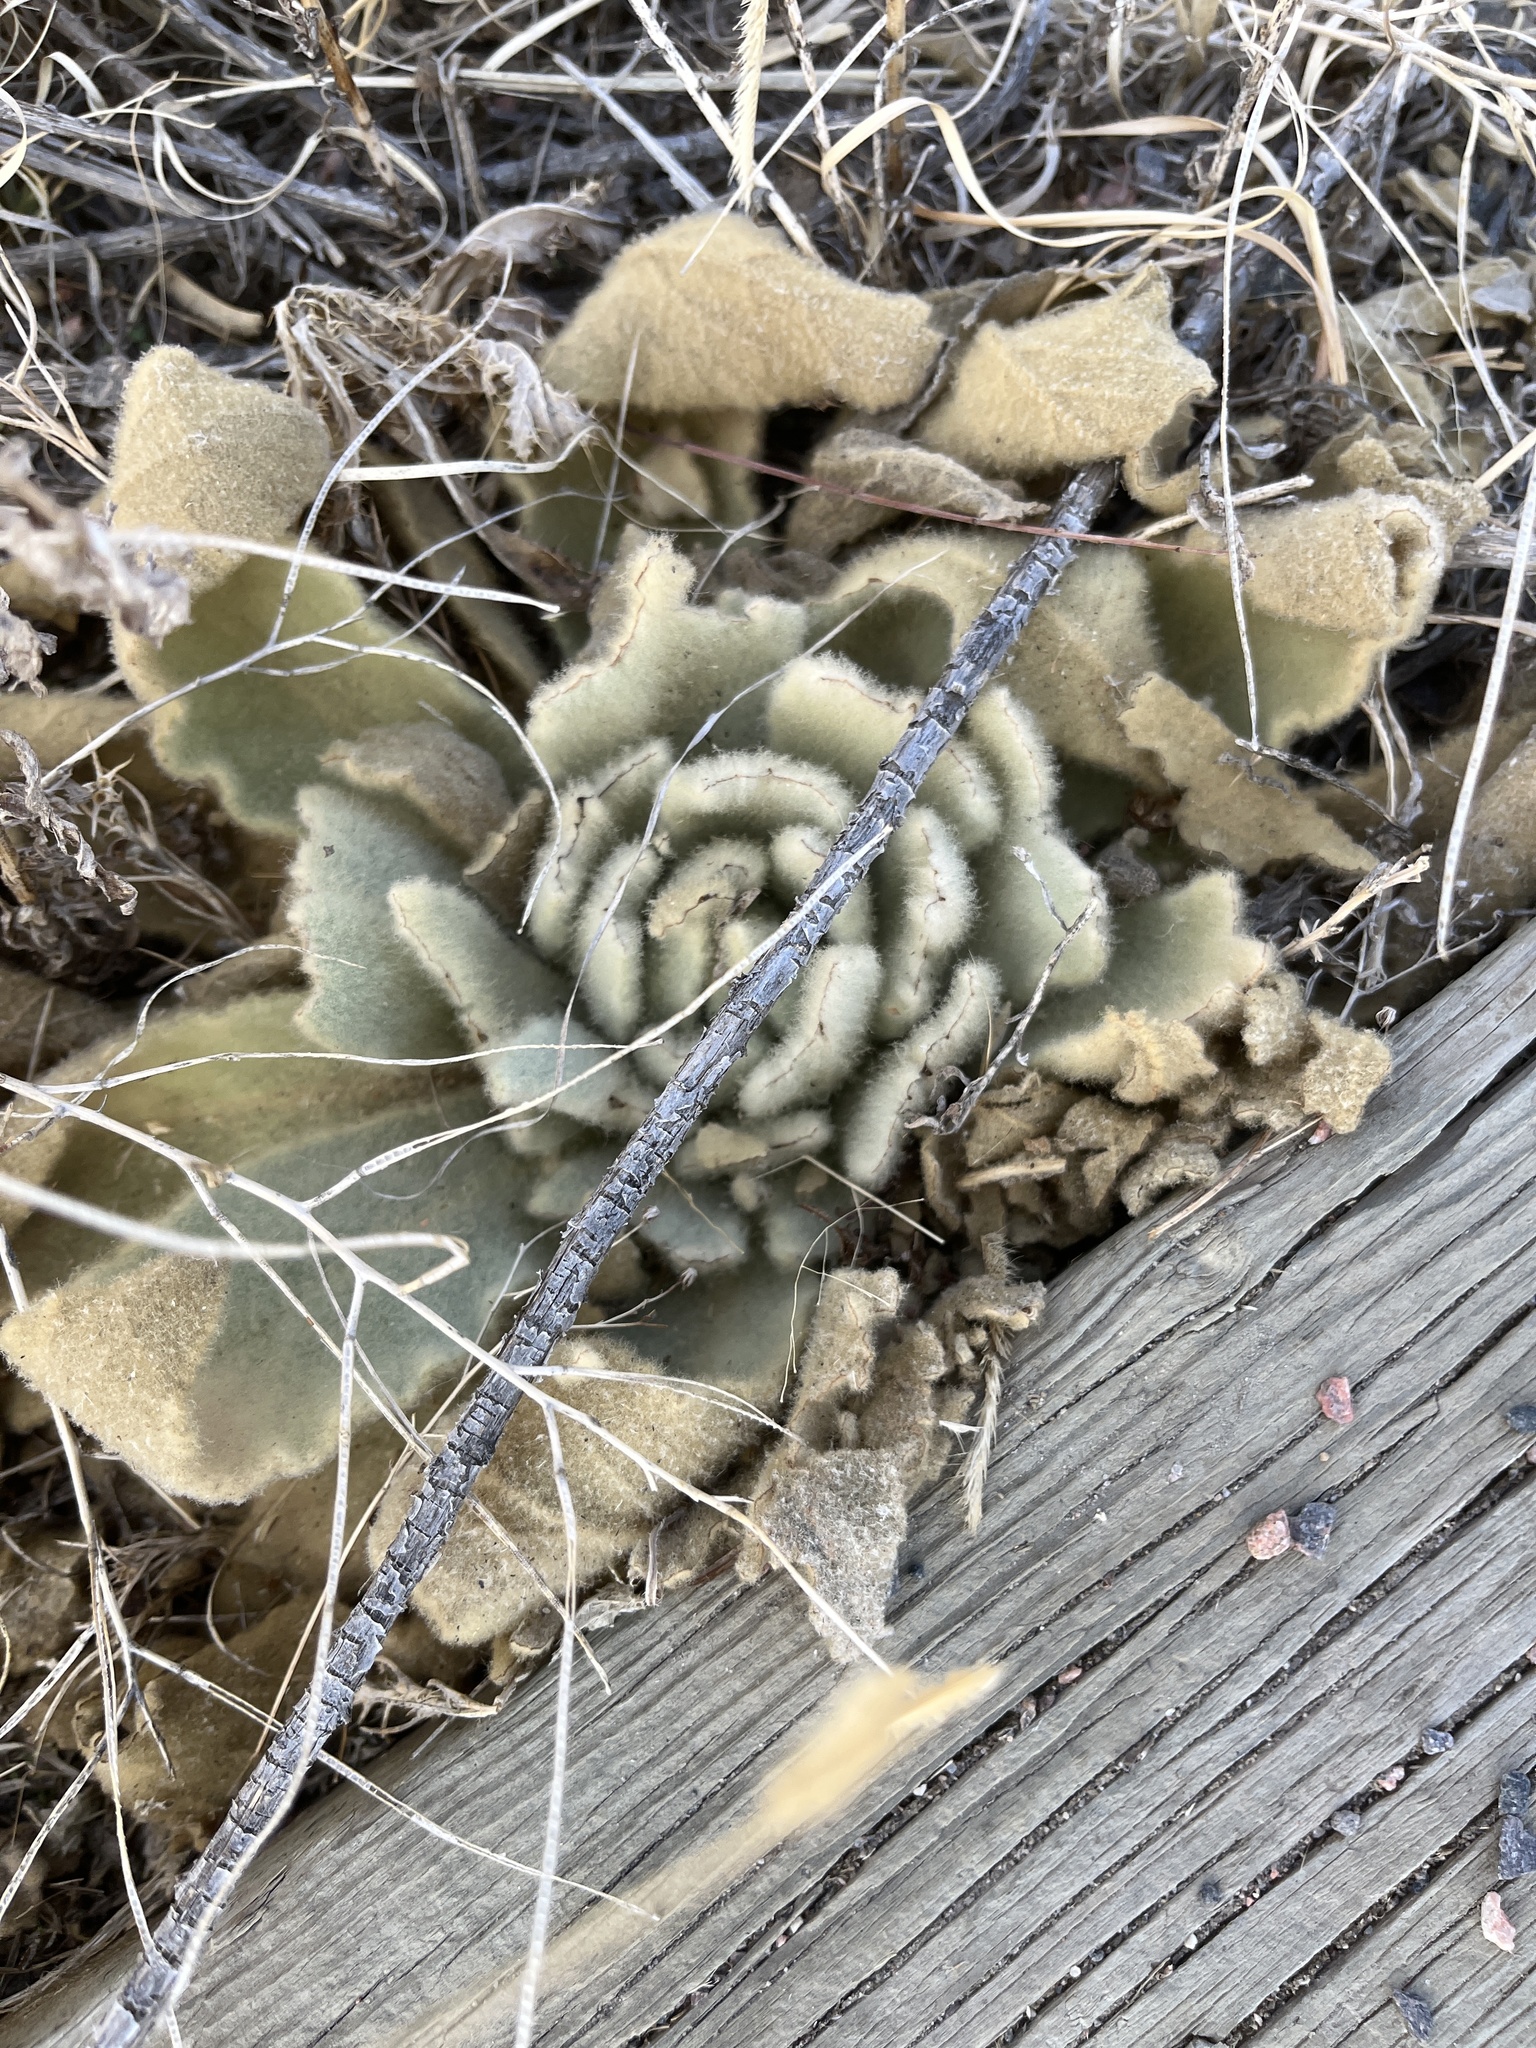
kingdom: Plantae
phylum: Tracheophyta
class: Magnoliopsida
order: Lamiales
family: Scrophulariaceae
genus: Verbascum
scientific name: Verbascum thapsus
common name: Common mullein
